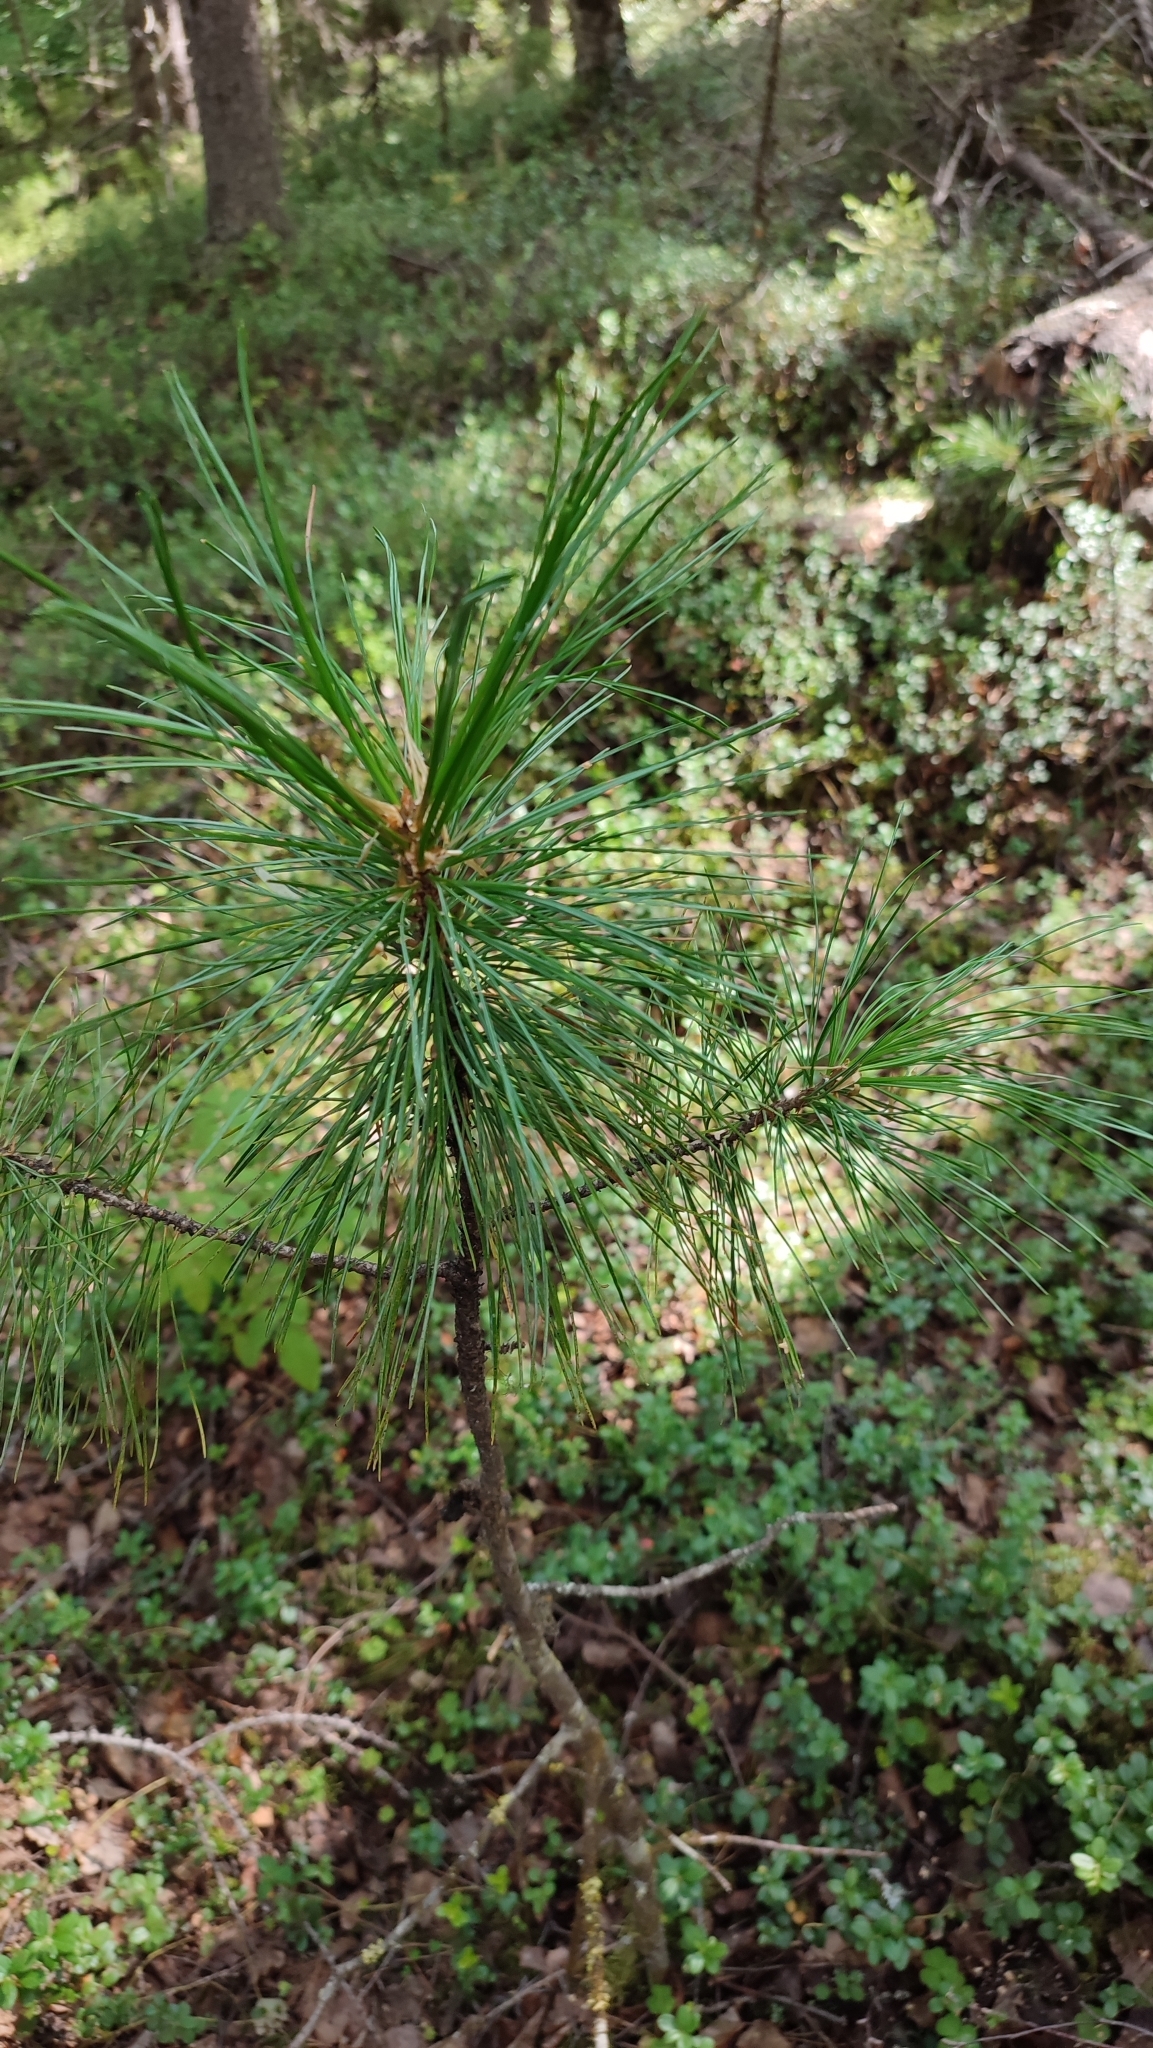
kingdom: Plantae
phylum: Tracheophyta
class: Pinopsida
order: Pinales
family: Pinaceae
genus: Pinus
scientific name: Pinus sibirica
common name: Siberian pine
